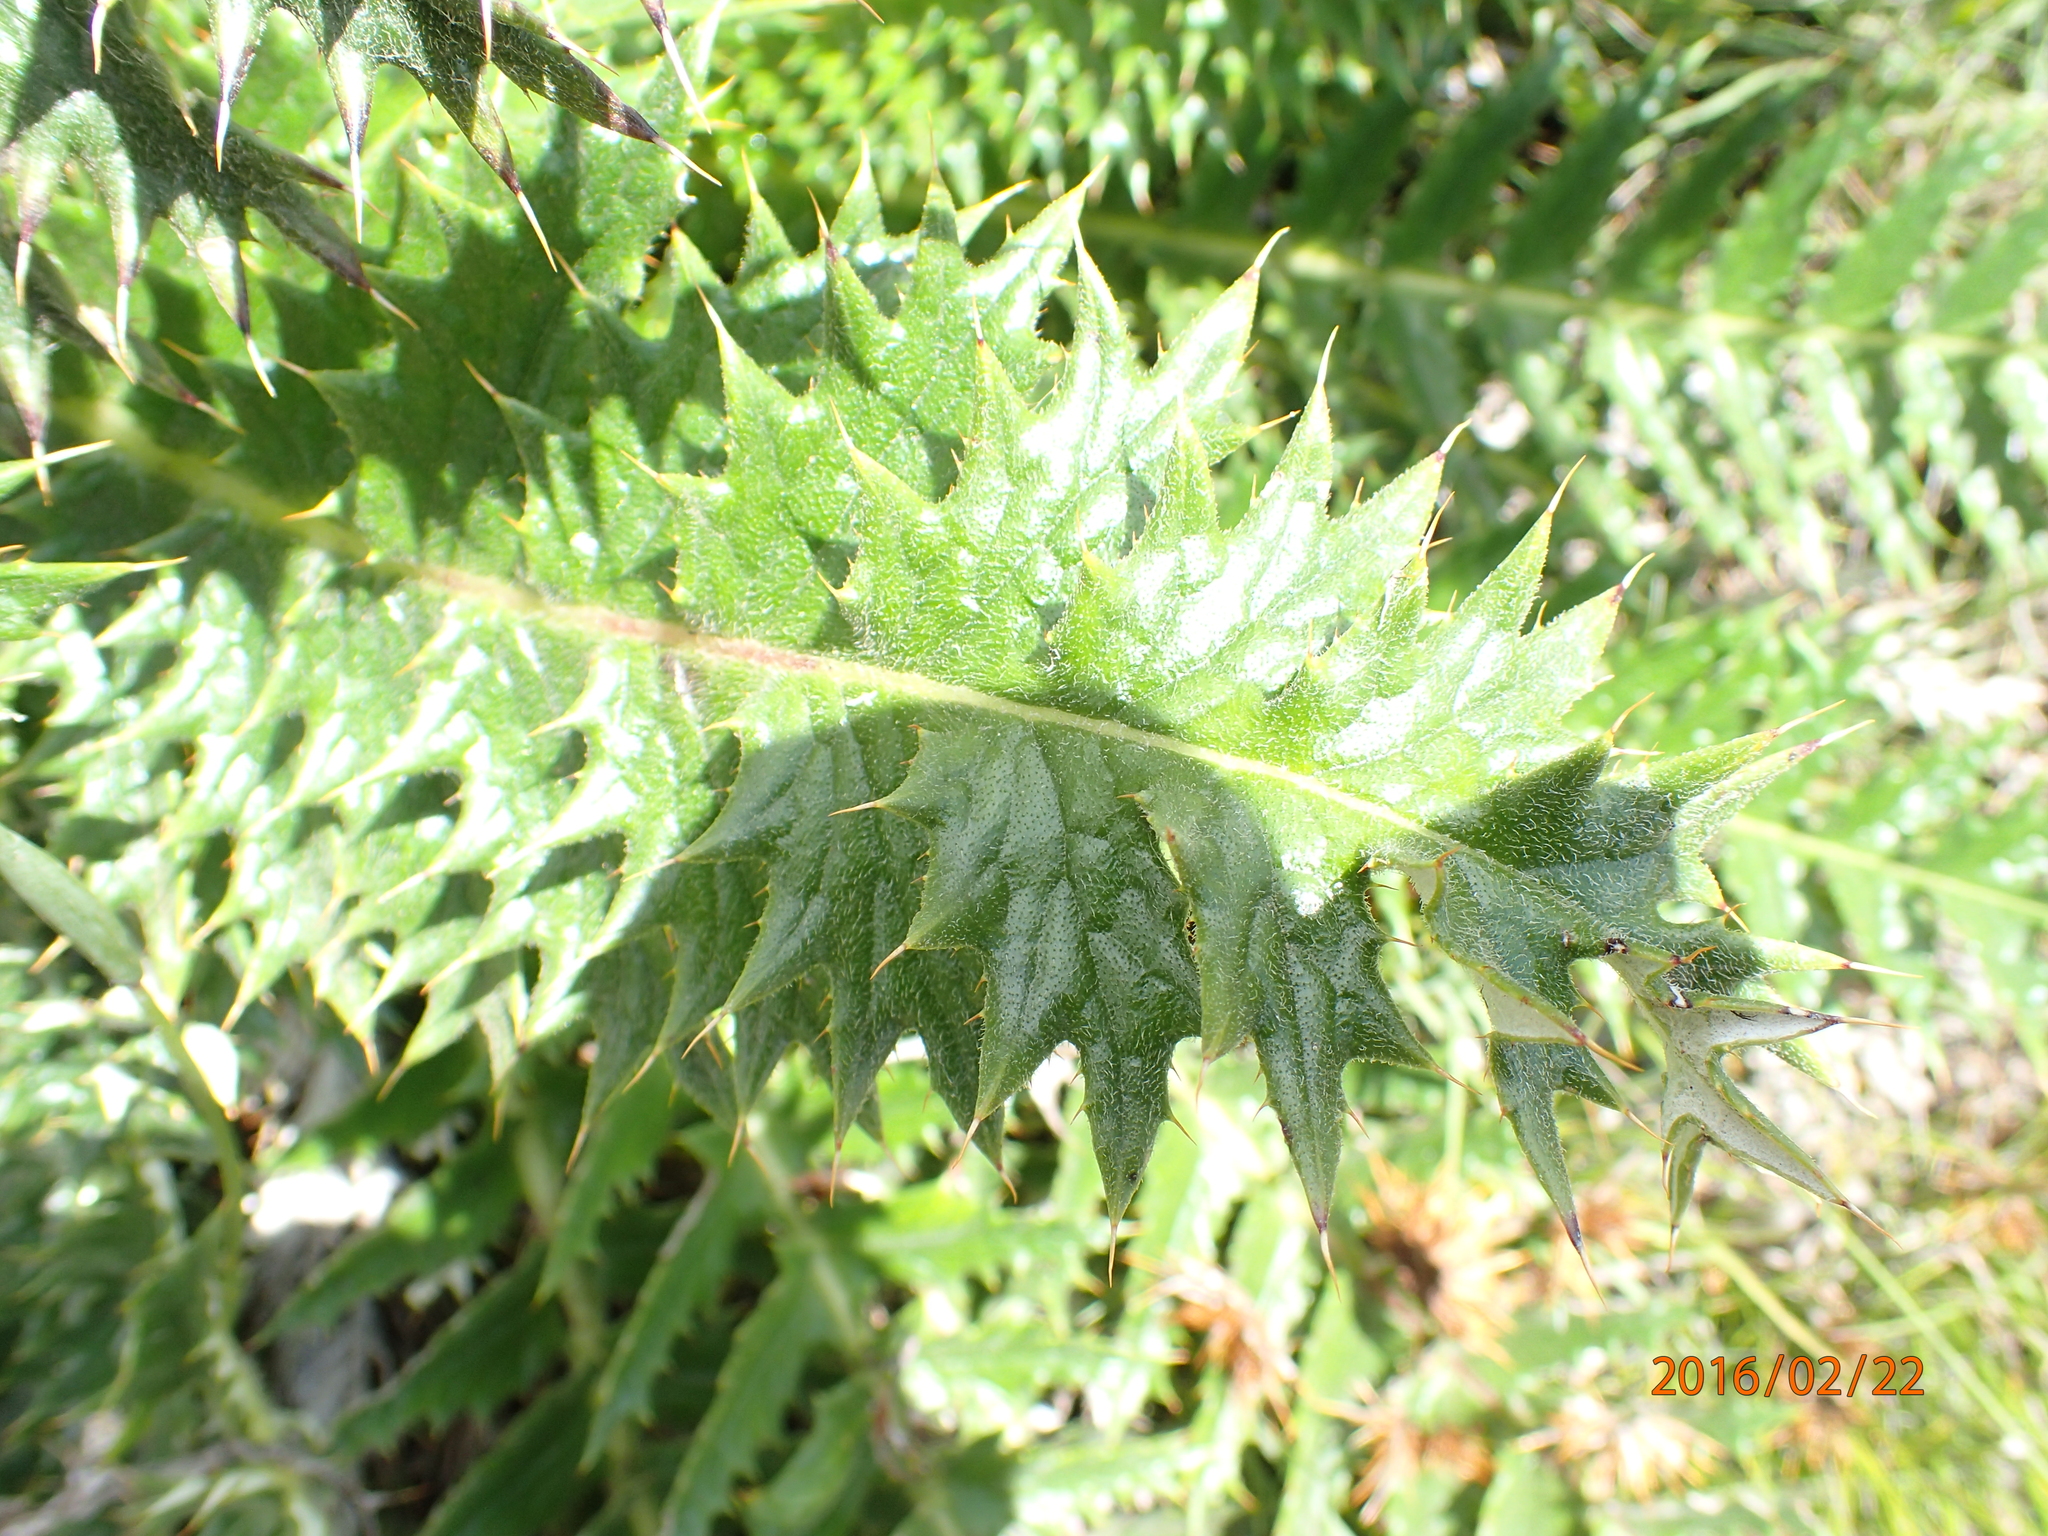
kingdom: Plantae
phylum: Tracheophyta
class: Magnoliopsida
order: Asterales
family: Asteraceae
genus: Berkheya
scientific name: Berkheya multijuga
